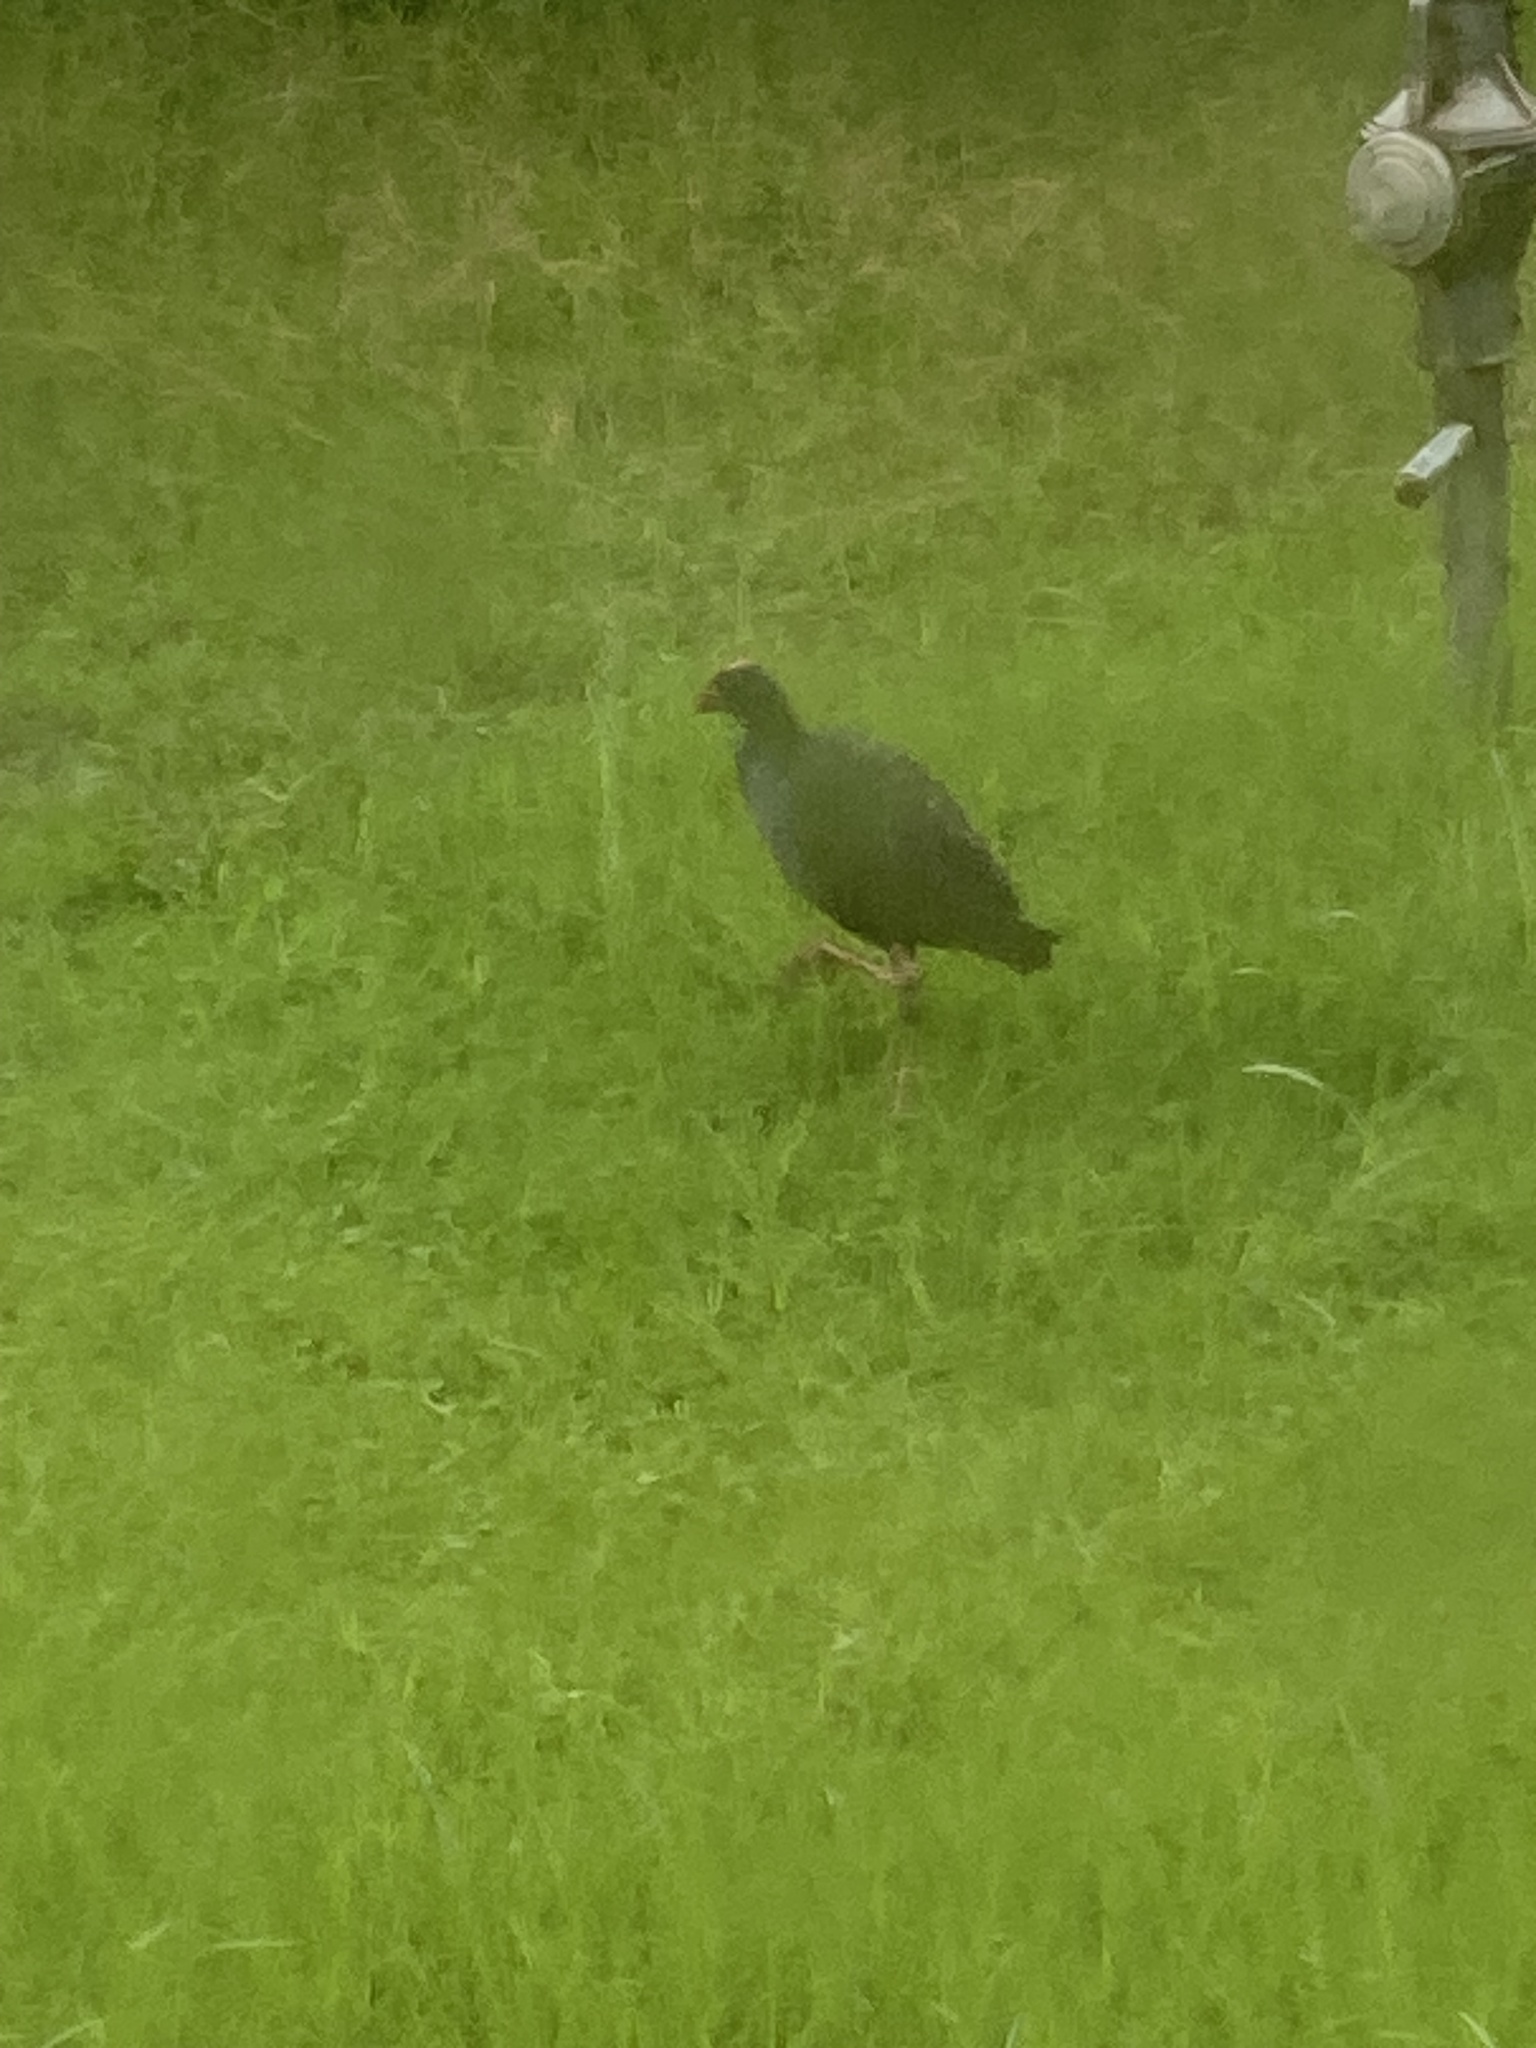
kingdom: Animalia
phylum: Chordata
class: Aves
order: Gruiformes
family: Rallidae
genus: Porphyrio
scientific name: Porphyrio melanotus
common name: Australasian swamphen
